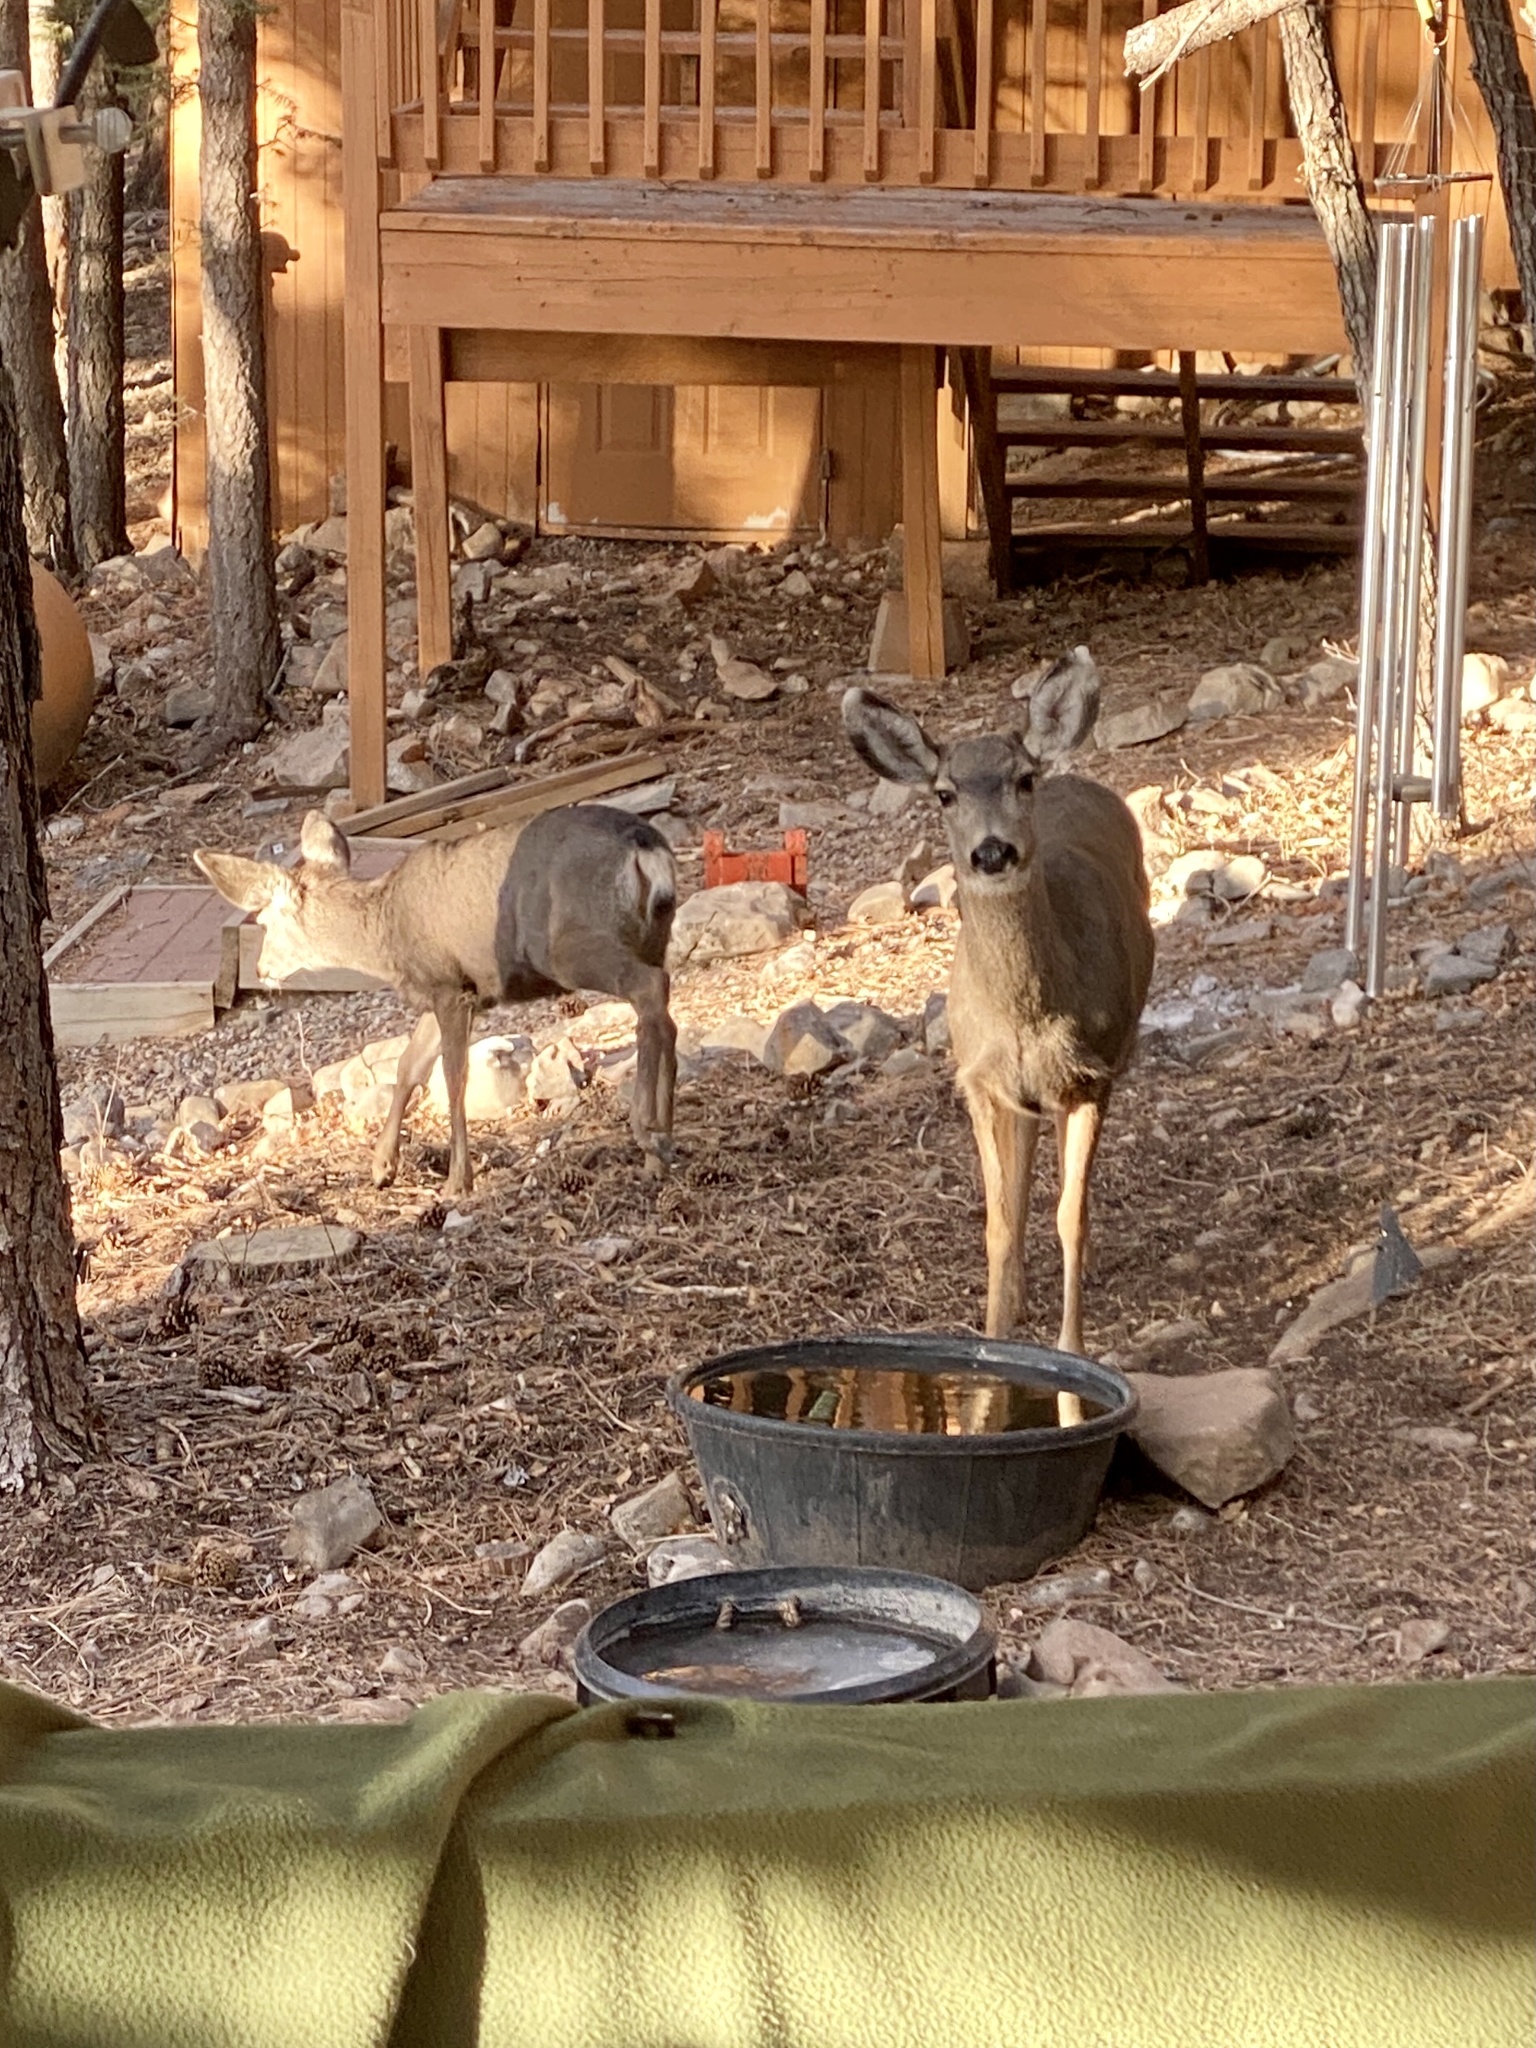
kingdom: Animalia
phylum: Chordata
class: Mammalia
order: Artiodactyla
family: Cervidae
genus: Odocoileus
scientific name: Odocoileus hemionus
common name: Mule deer
